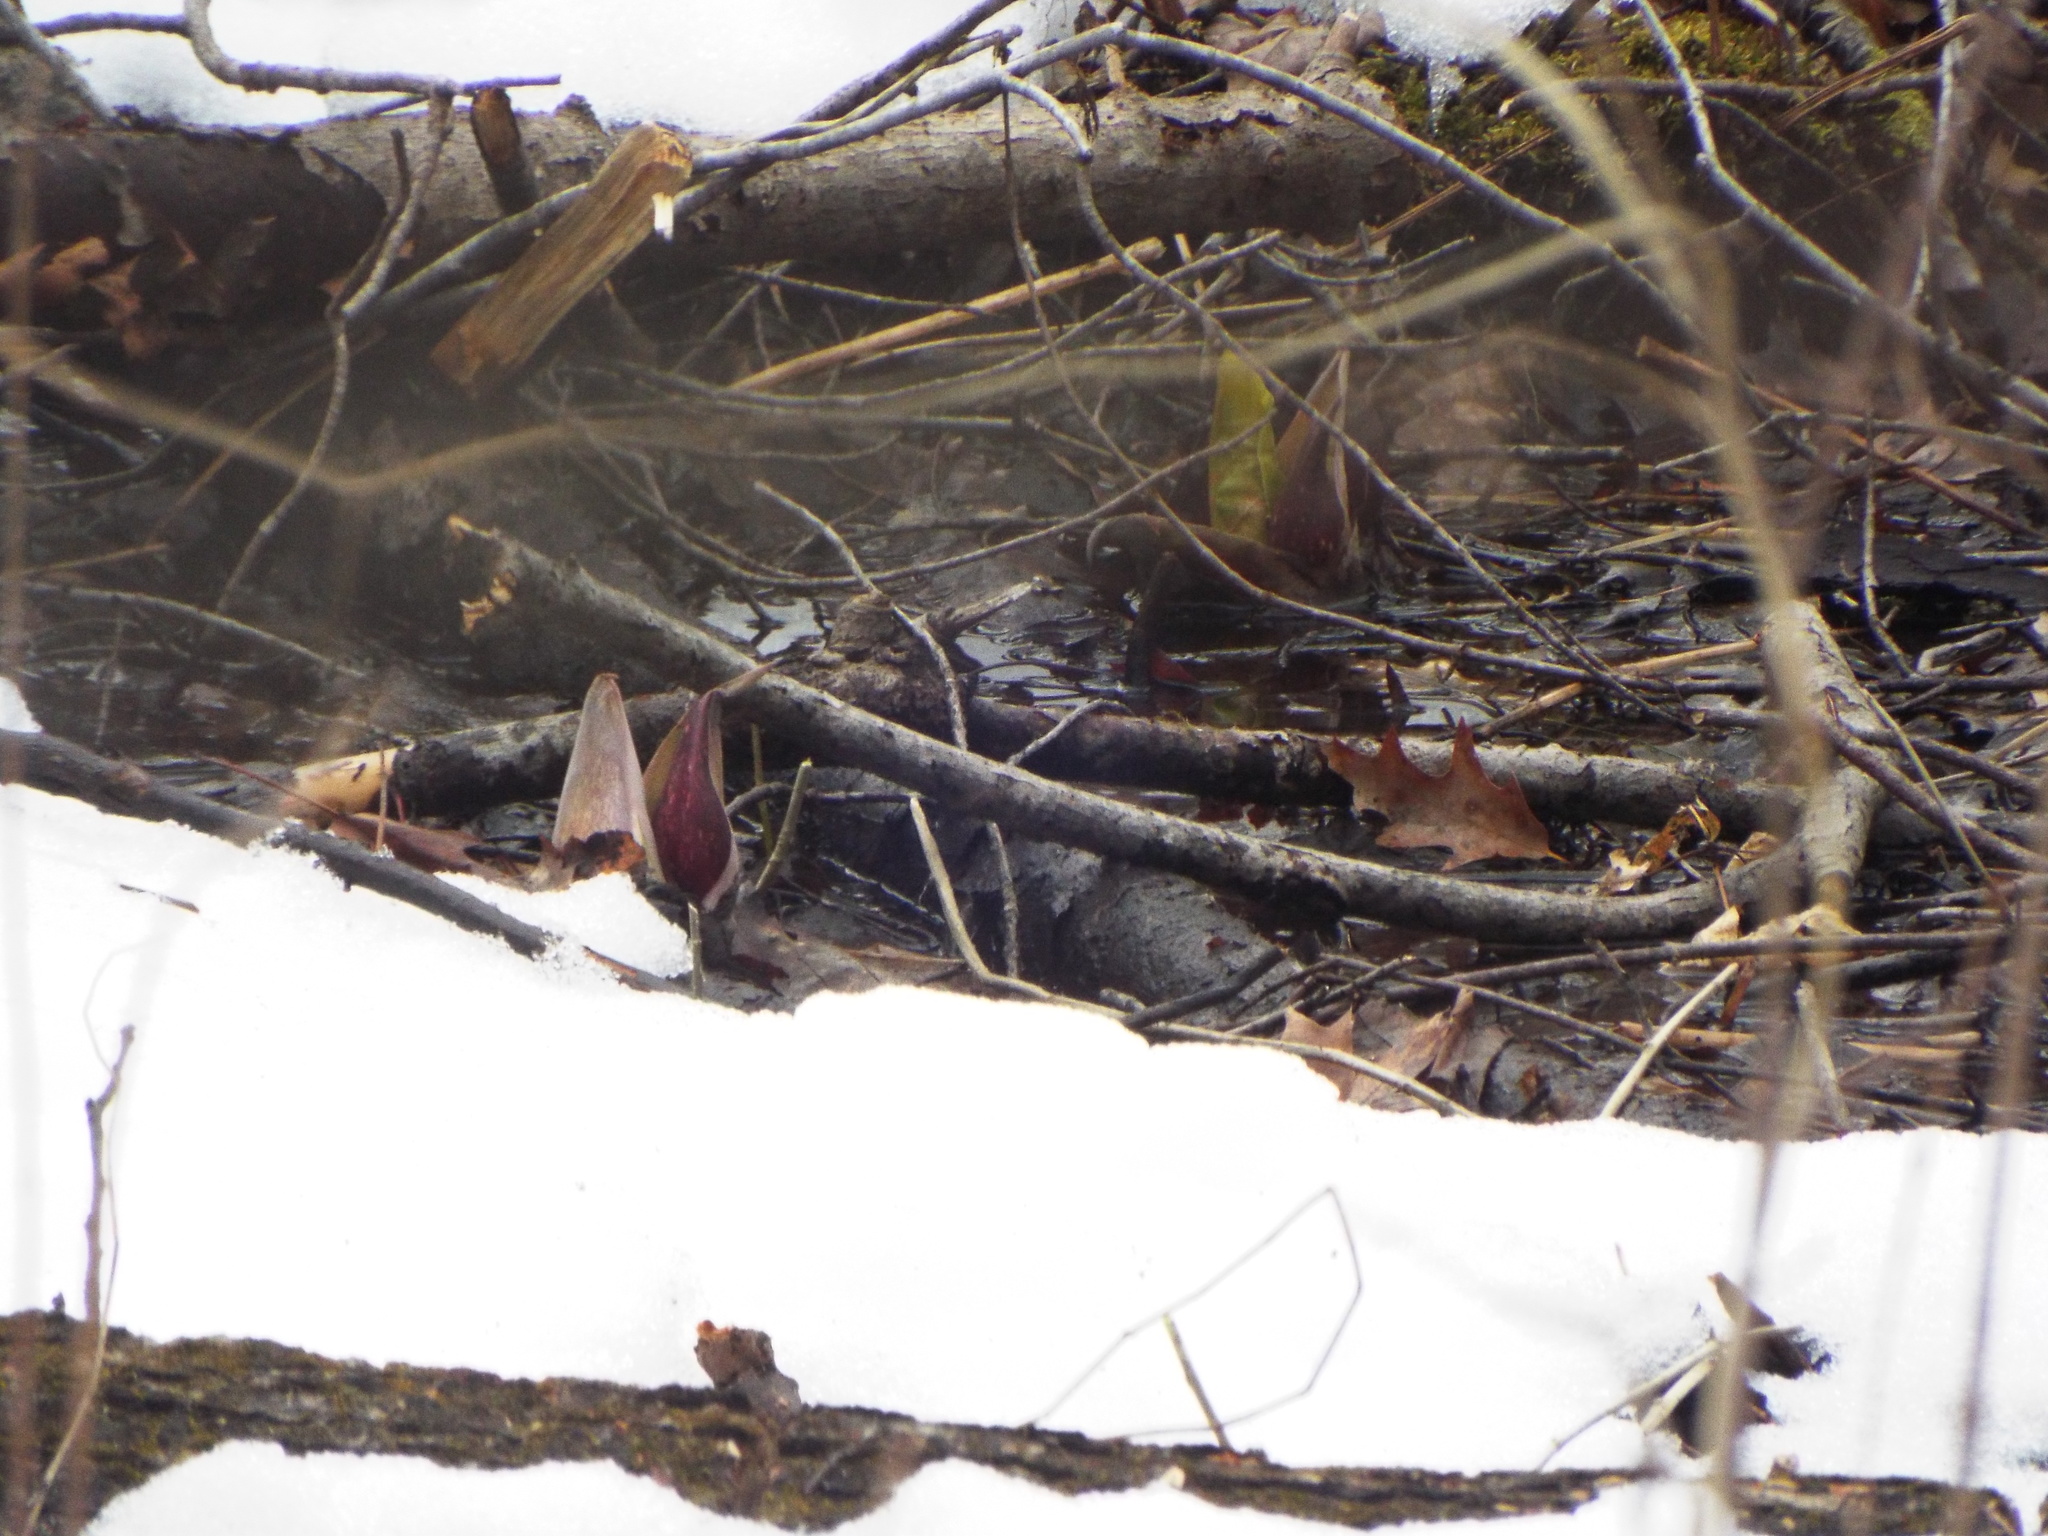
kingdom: Plantae
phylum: Tracheophyta
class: Liliopsida
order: Alismatales
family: Araceae
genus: Symplocarpus
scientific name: Symplocarpus foetidus
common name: Eastern skunk cabbage
